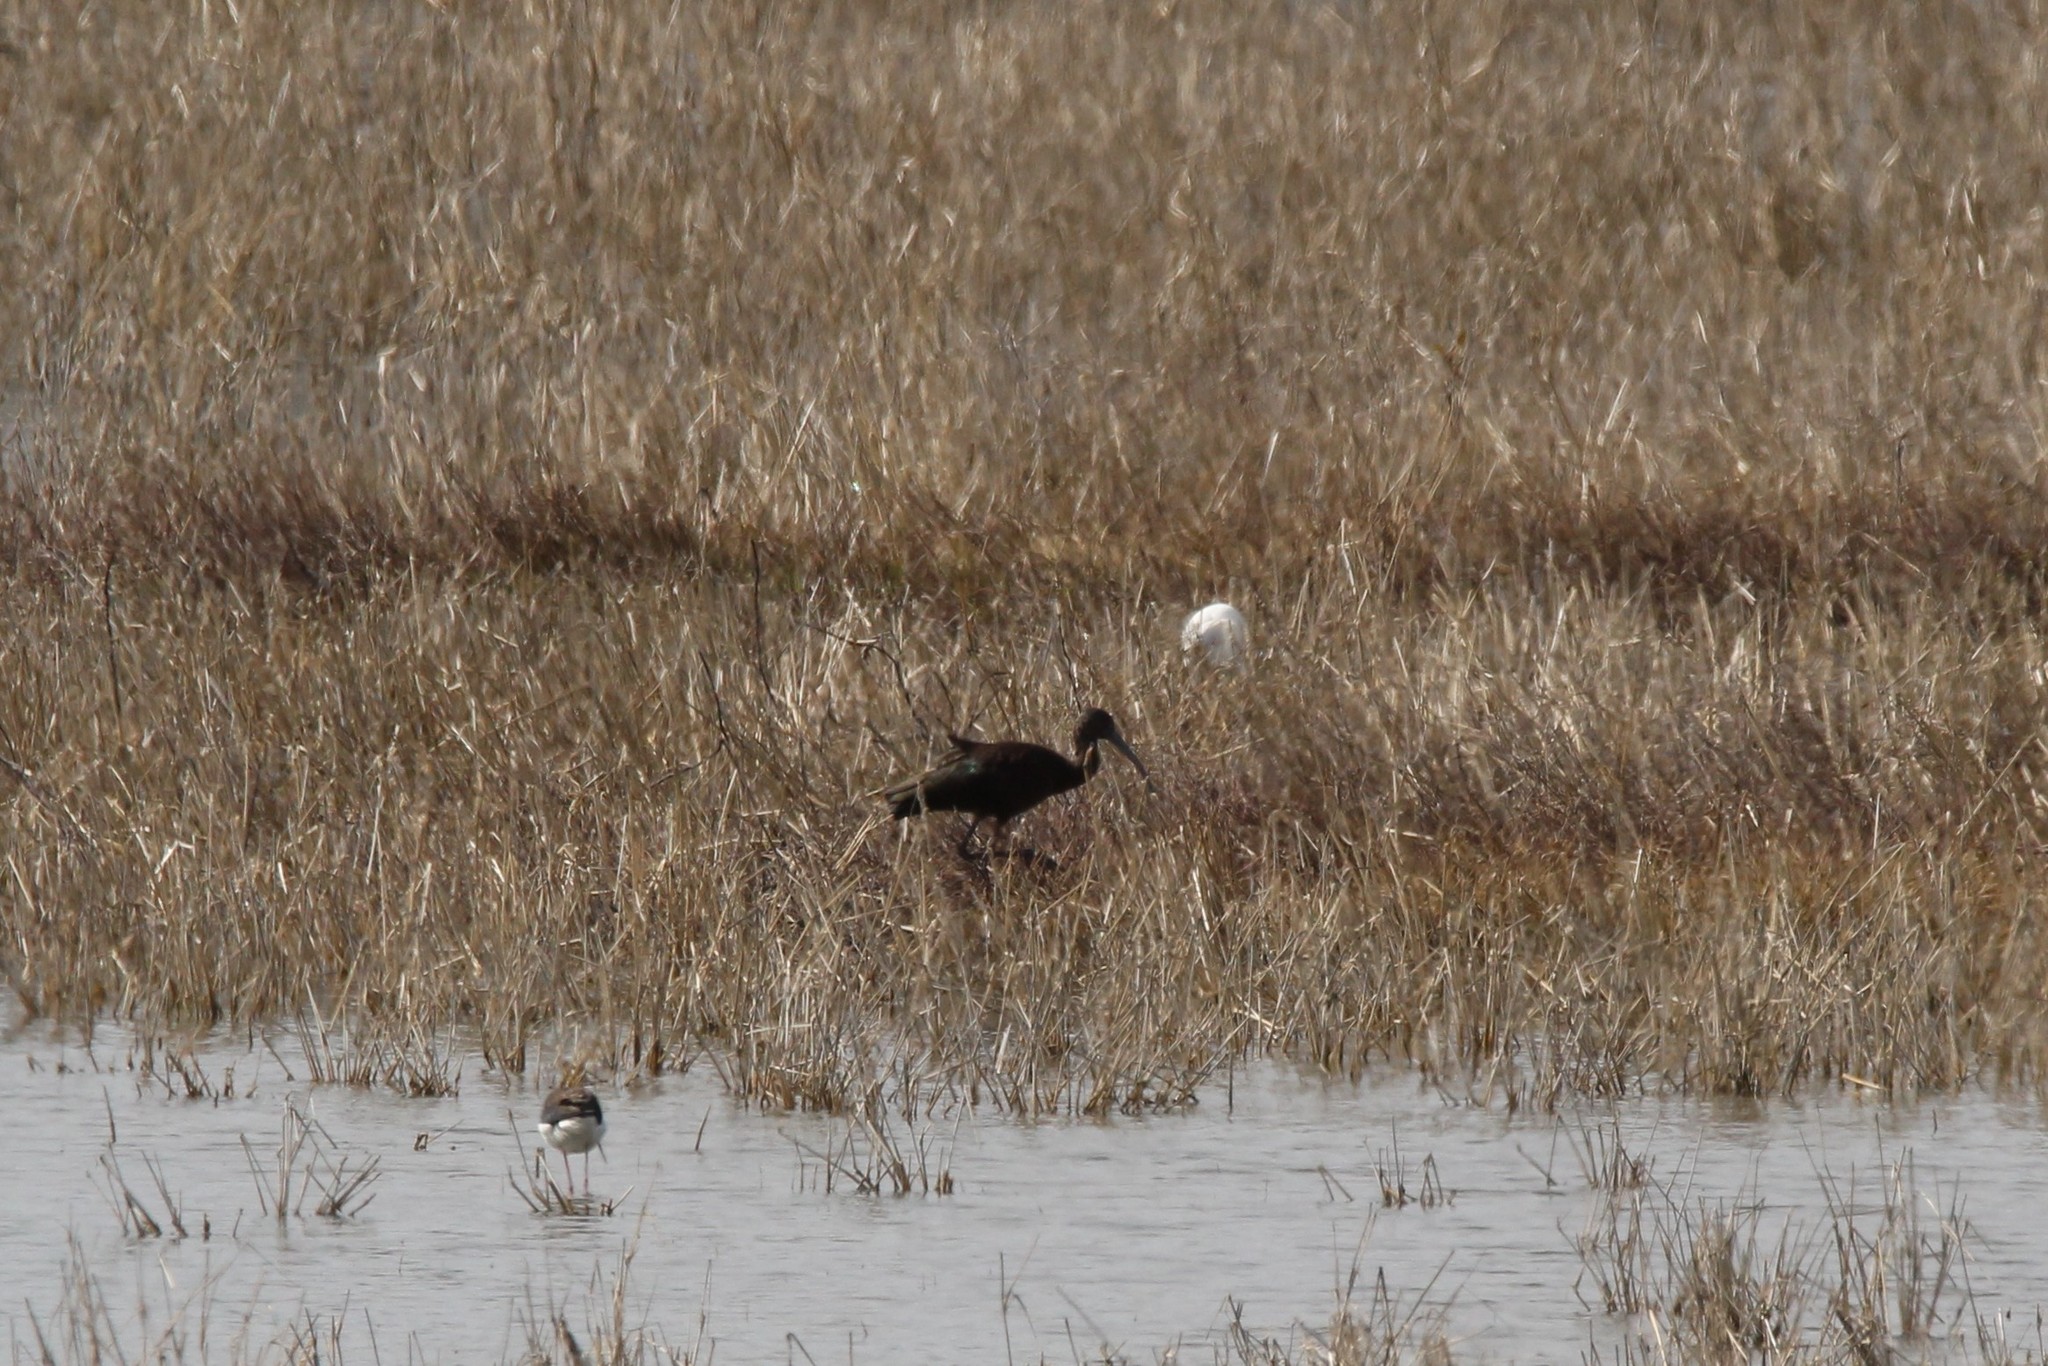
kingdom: Animalia
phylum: Chordata
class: Aves
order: Pelecaniformes
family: Threskiornithidae
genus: Plegadis
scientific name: Plegadis chihi
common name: White-faced ibis
